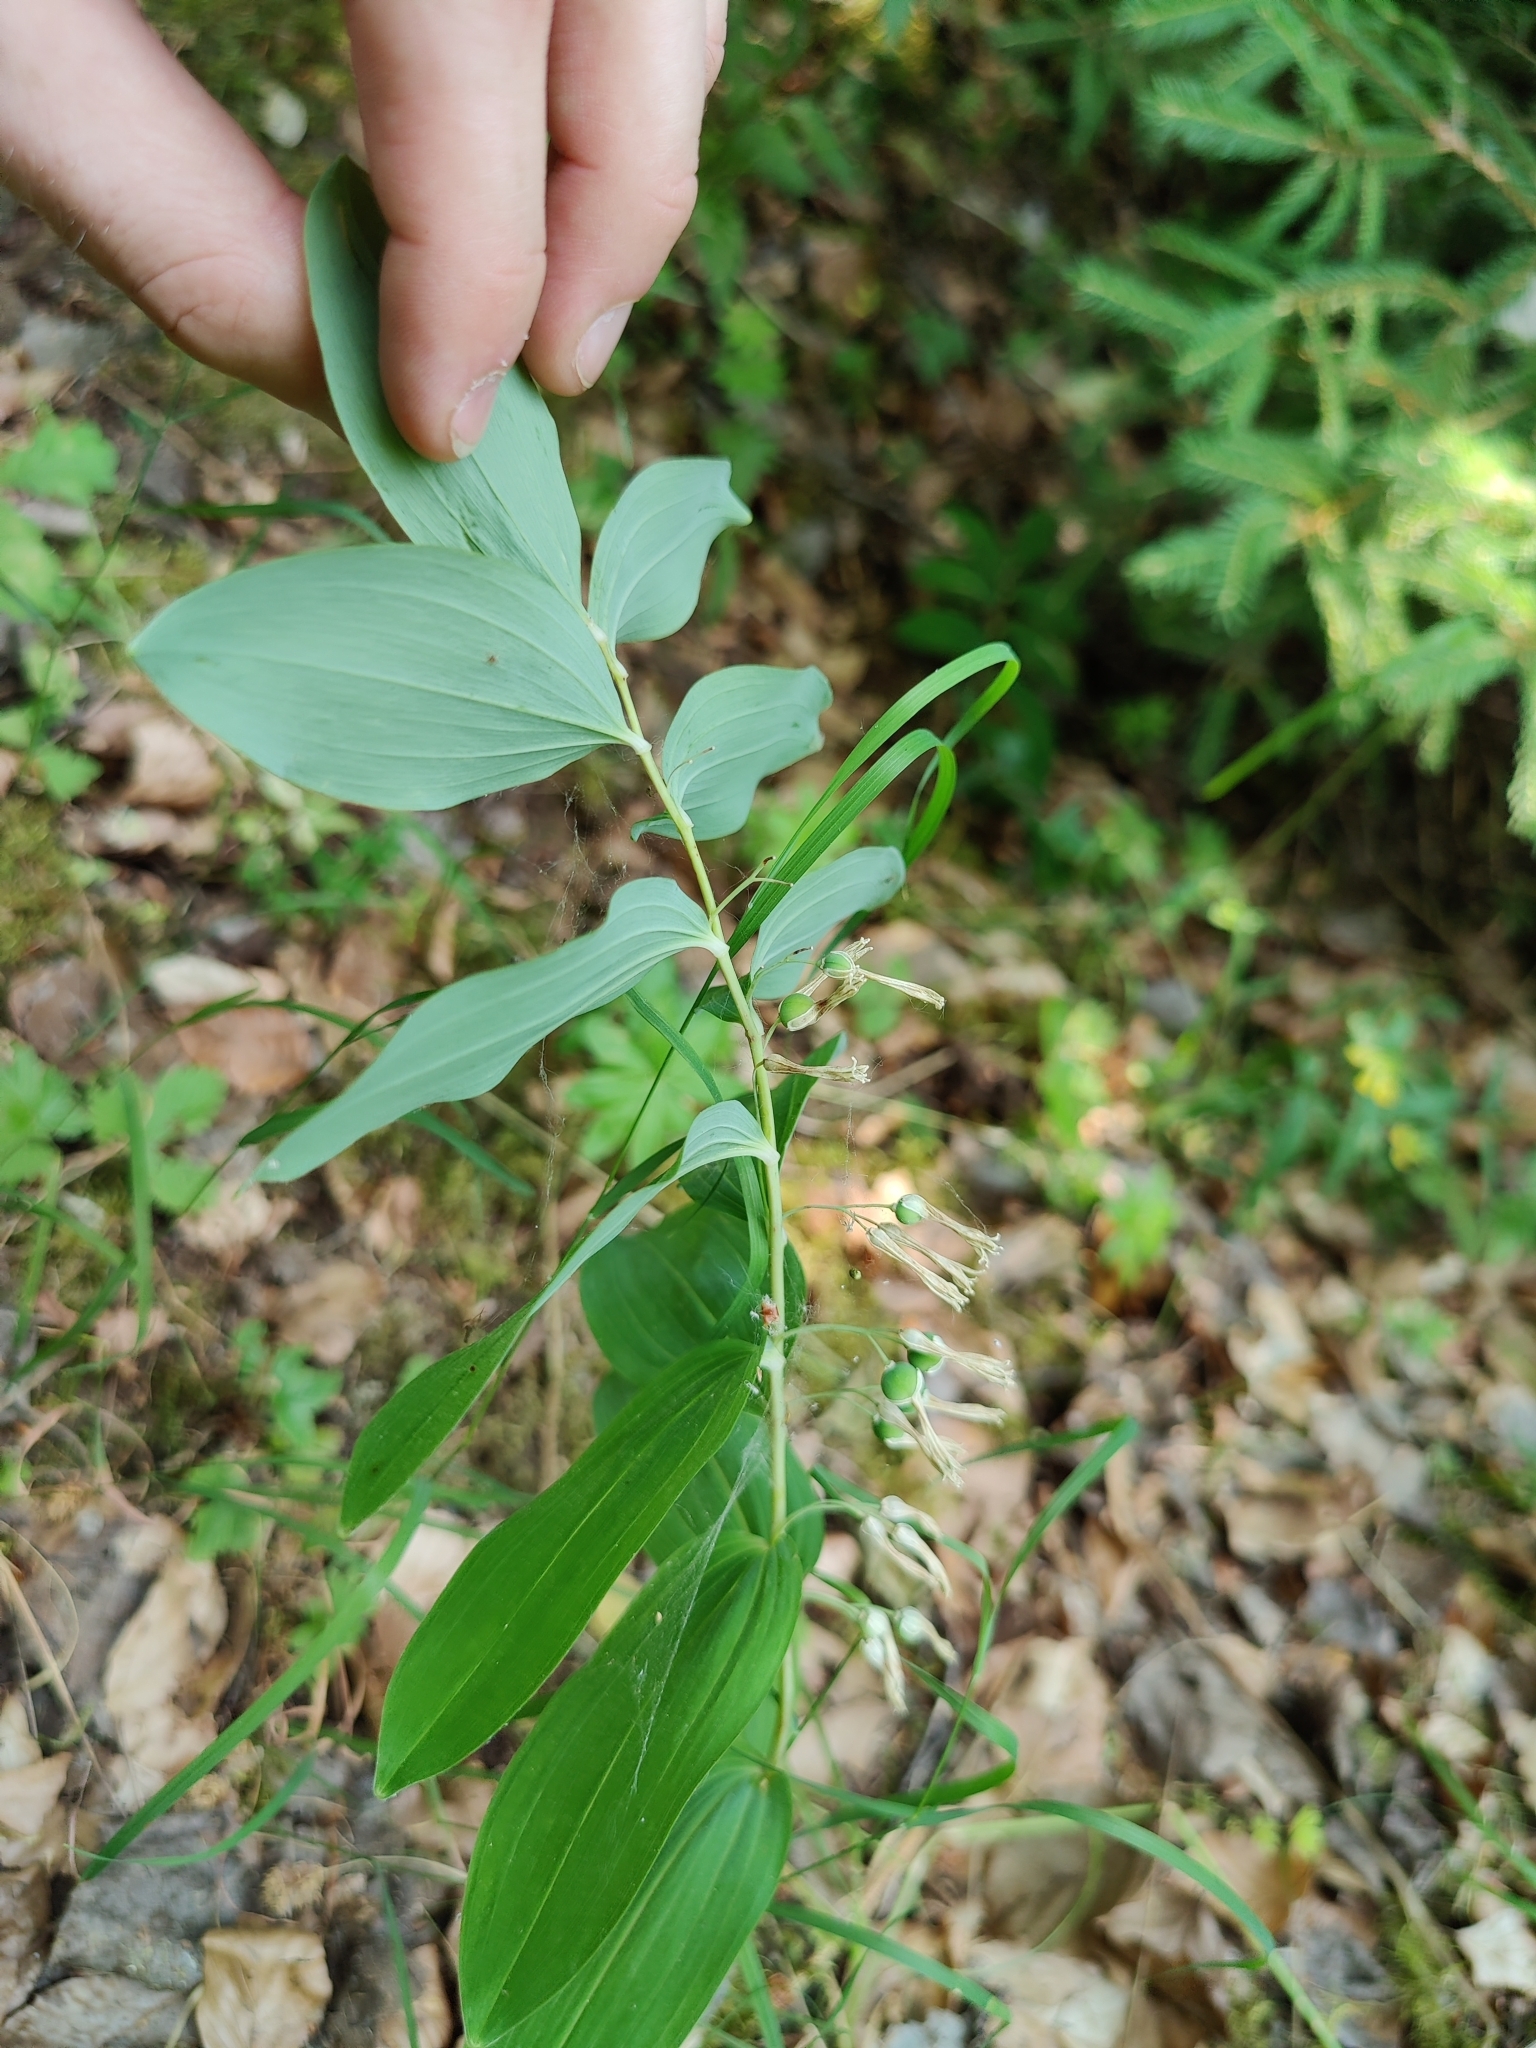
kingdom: Plantae
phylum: Tracheophyta
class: Liliopsida
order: Asparagales
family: Asparagaceae
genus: Polygonatum
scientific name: Polygonatum multiflorum
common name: Solomon's-seal
